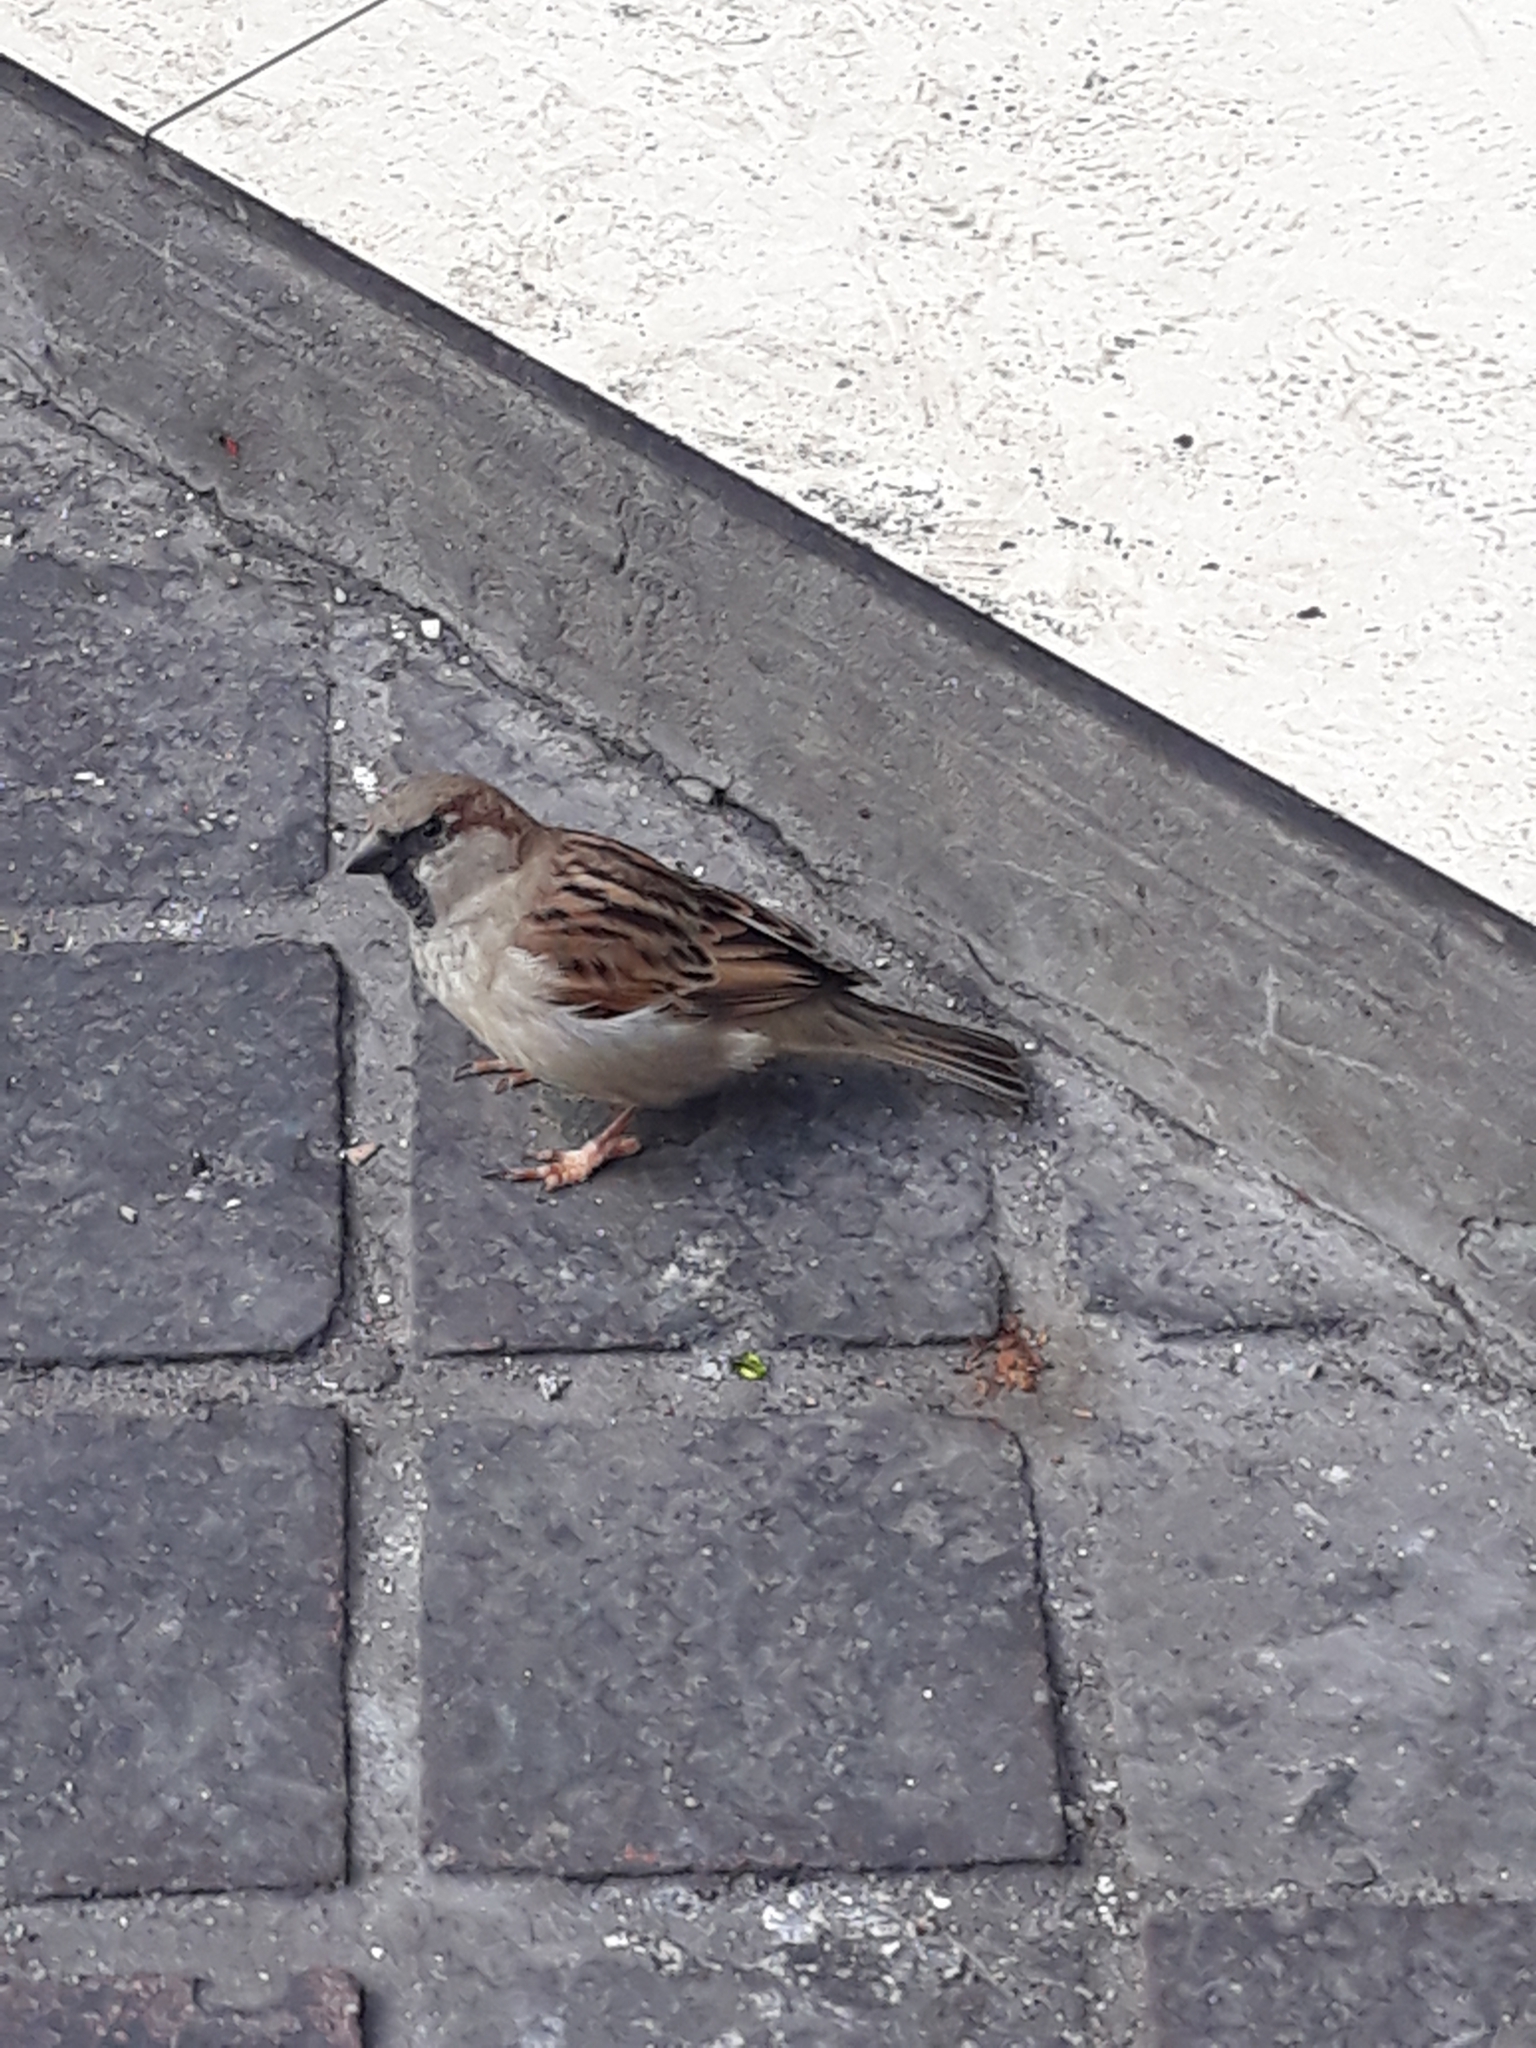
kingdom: Animalia
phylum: Chordata
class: Aves
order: Passeriformes
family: Passeridae
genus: Passer
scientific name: Passer domesticus
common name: House sparrow
